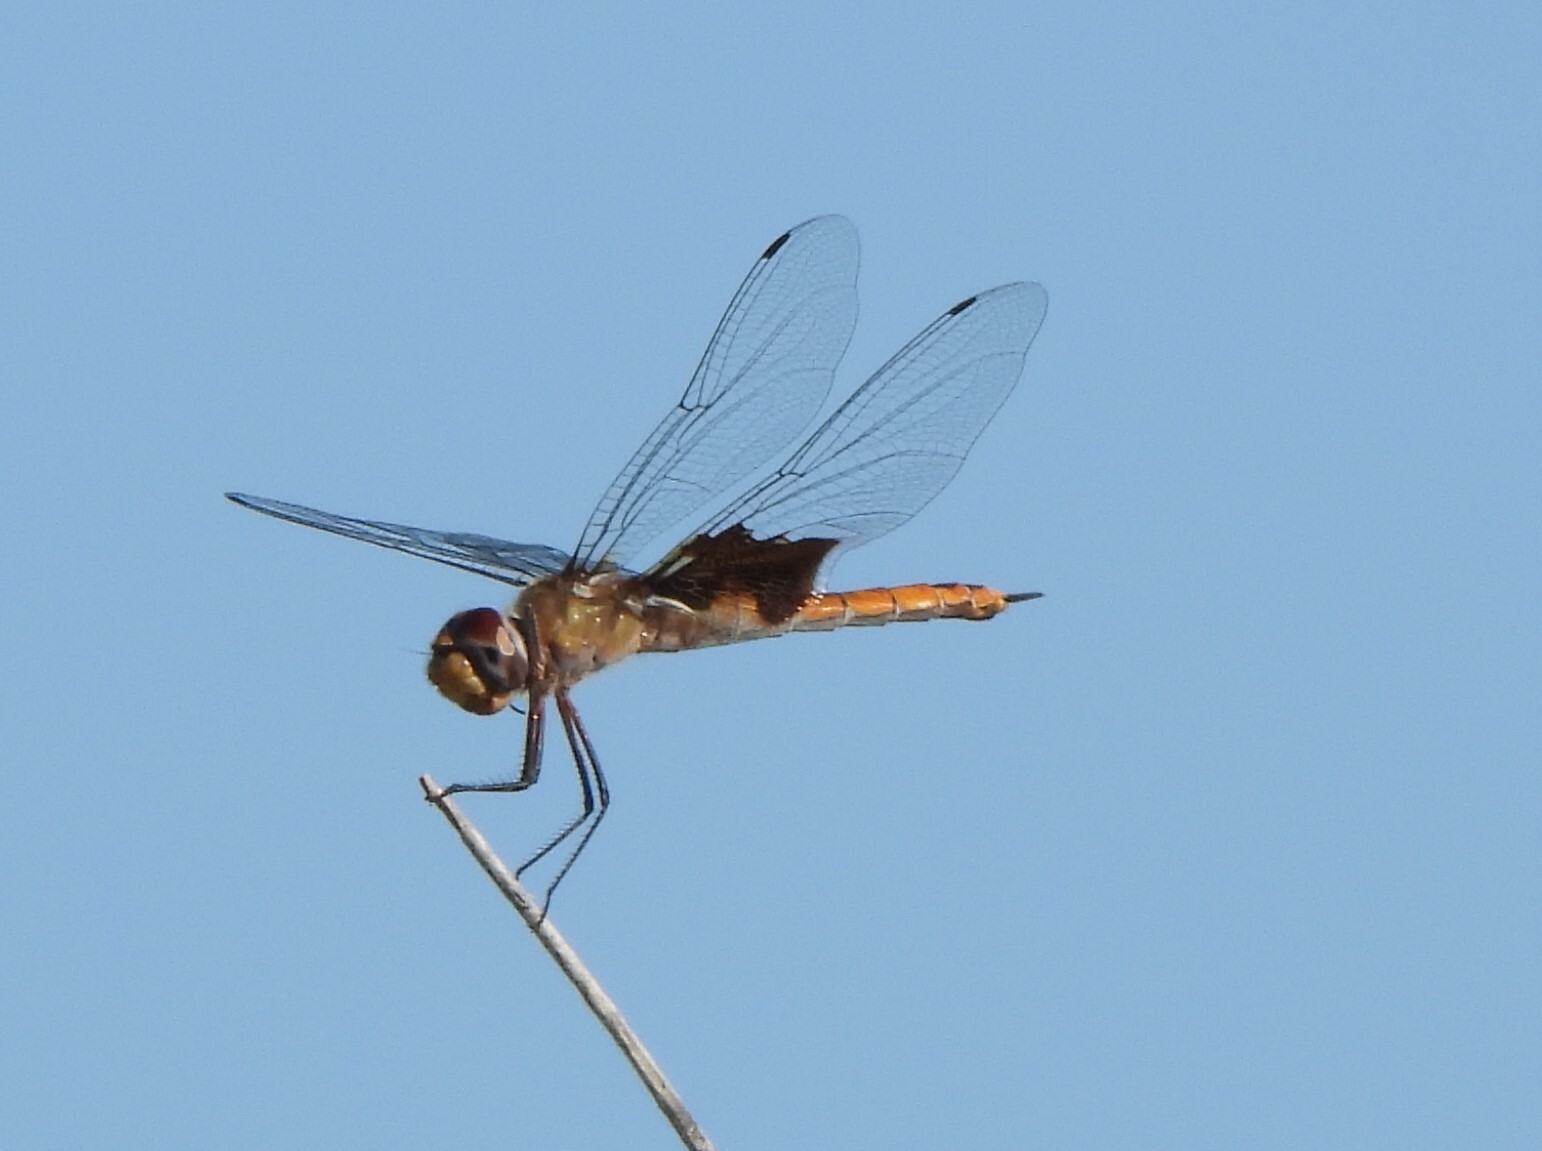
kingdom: Animalia
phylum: Arthropoda
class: Insecta
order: Odonata
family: Libellulidae
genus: Tramea
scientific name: Tramea onusta
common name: Red saddlebags
